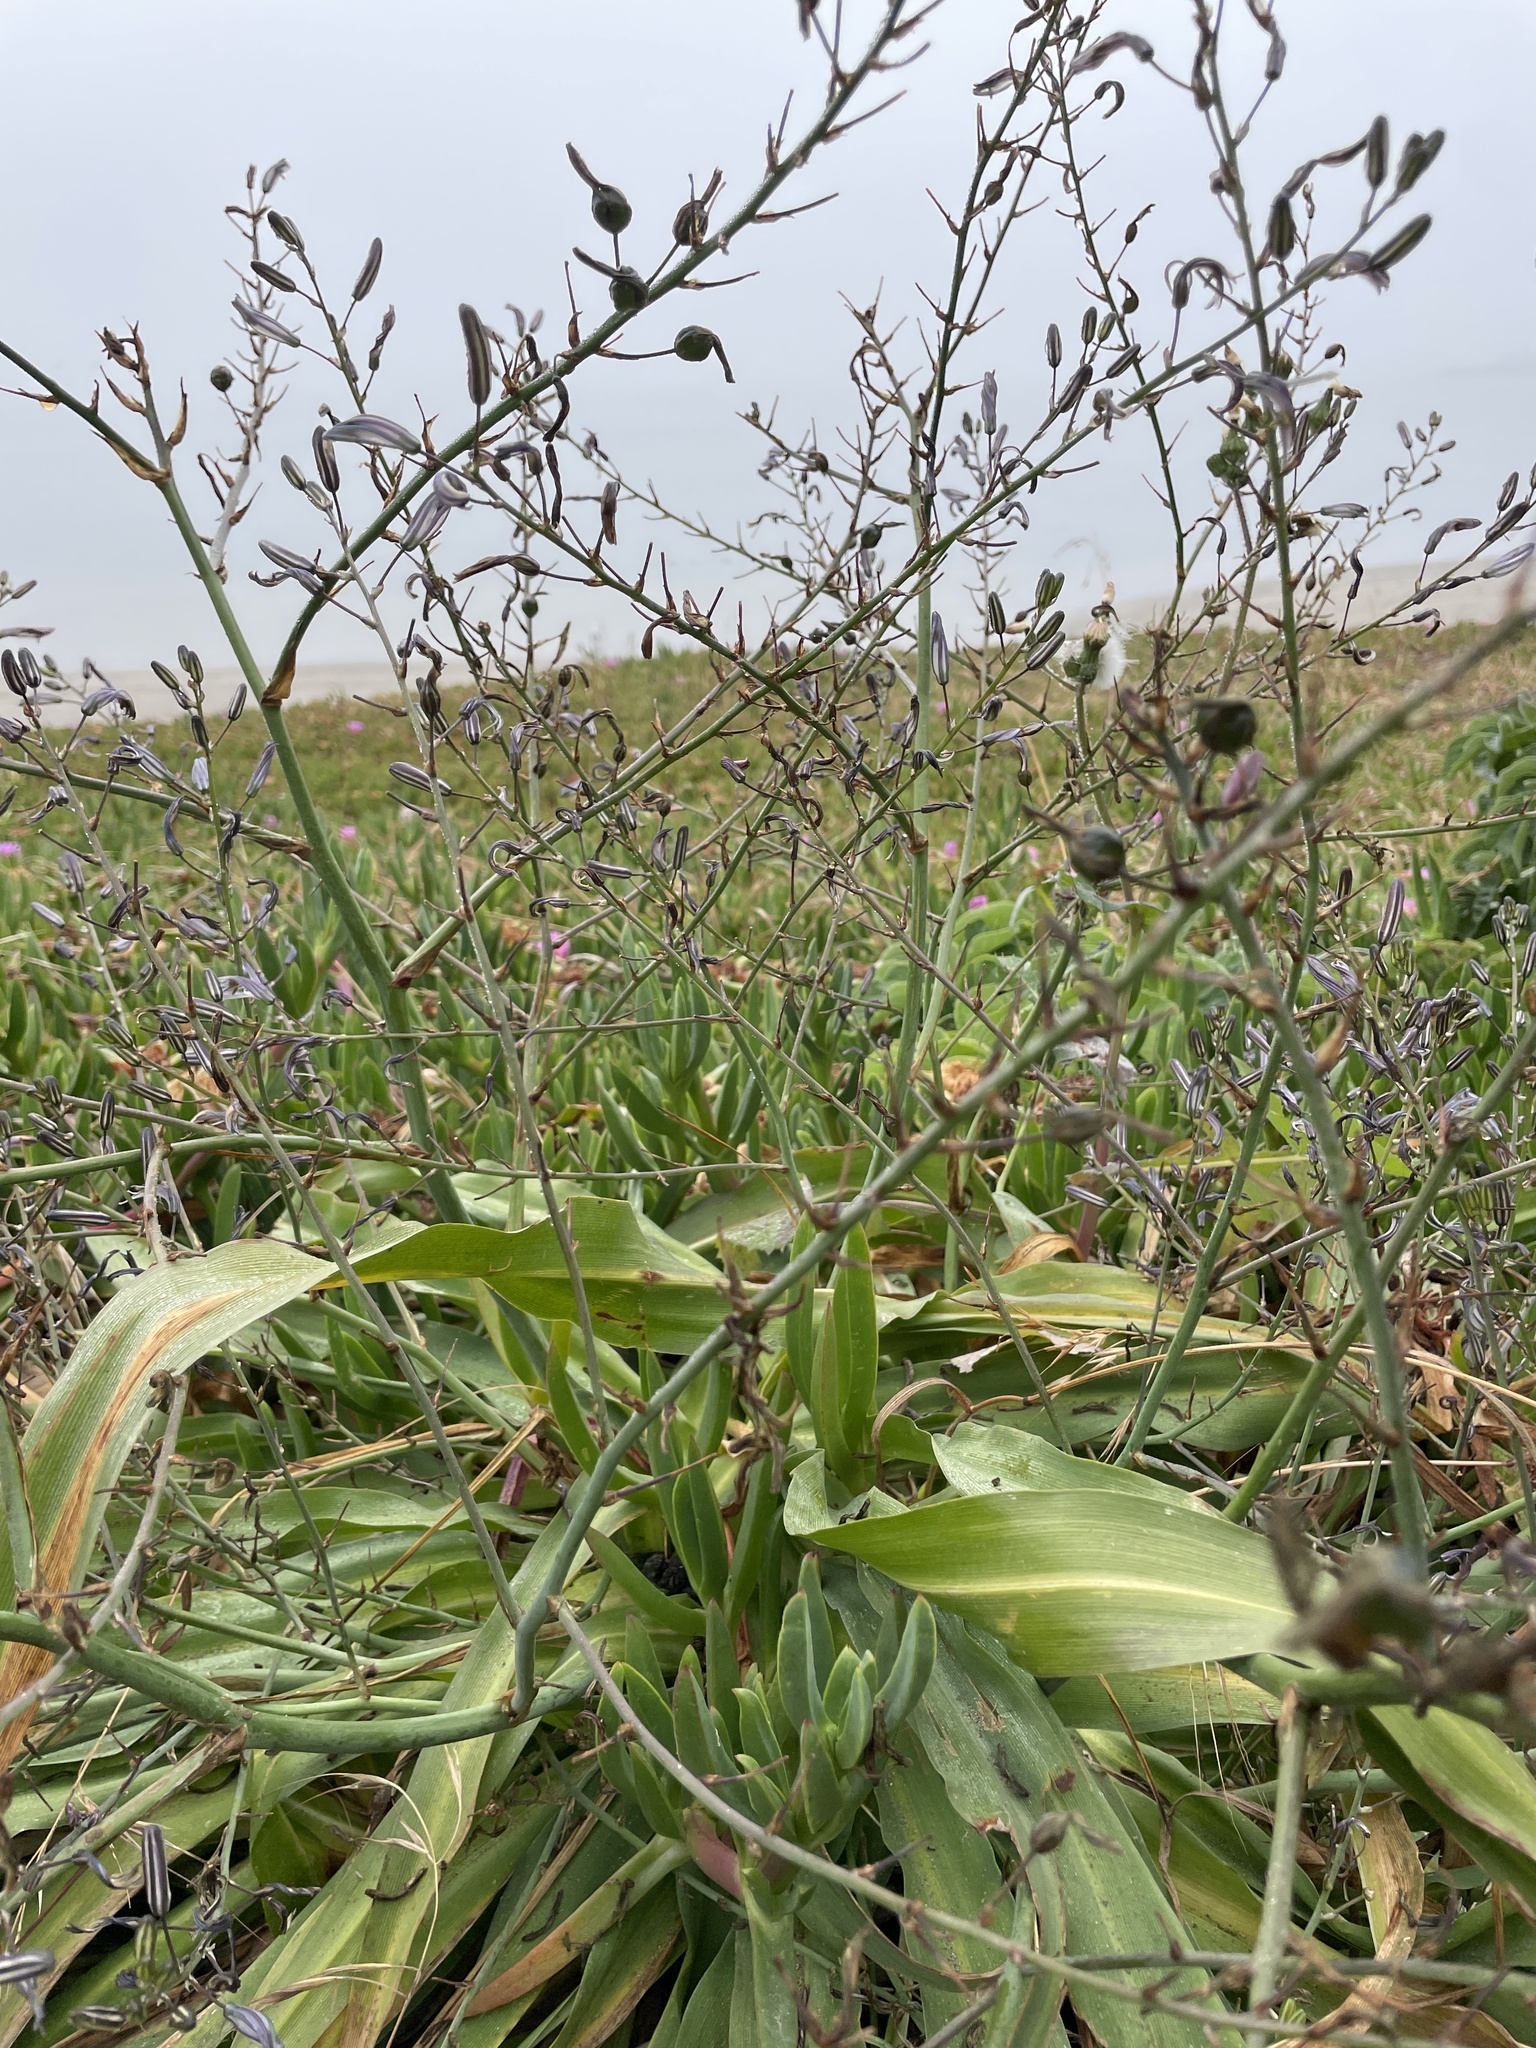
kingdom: Plantae
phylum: Tracheophyta
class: Liliopsida
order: Asparagales
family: Asparagaceae
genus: Chlorogalum
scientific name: Chlorogalum pomeridianum
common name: Amole
